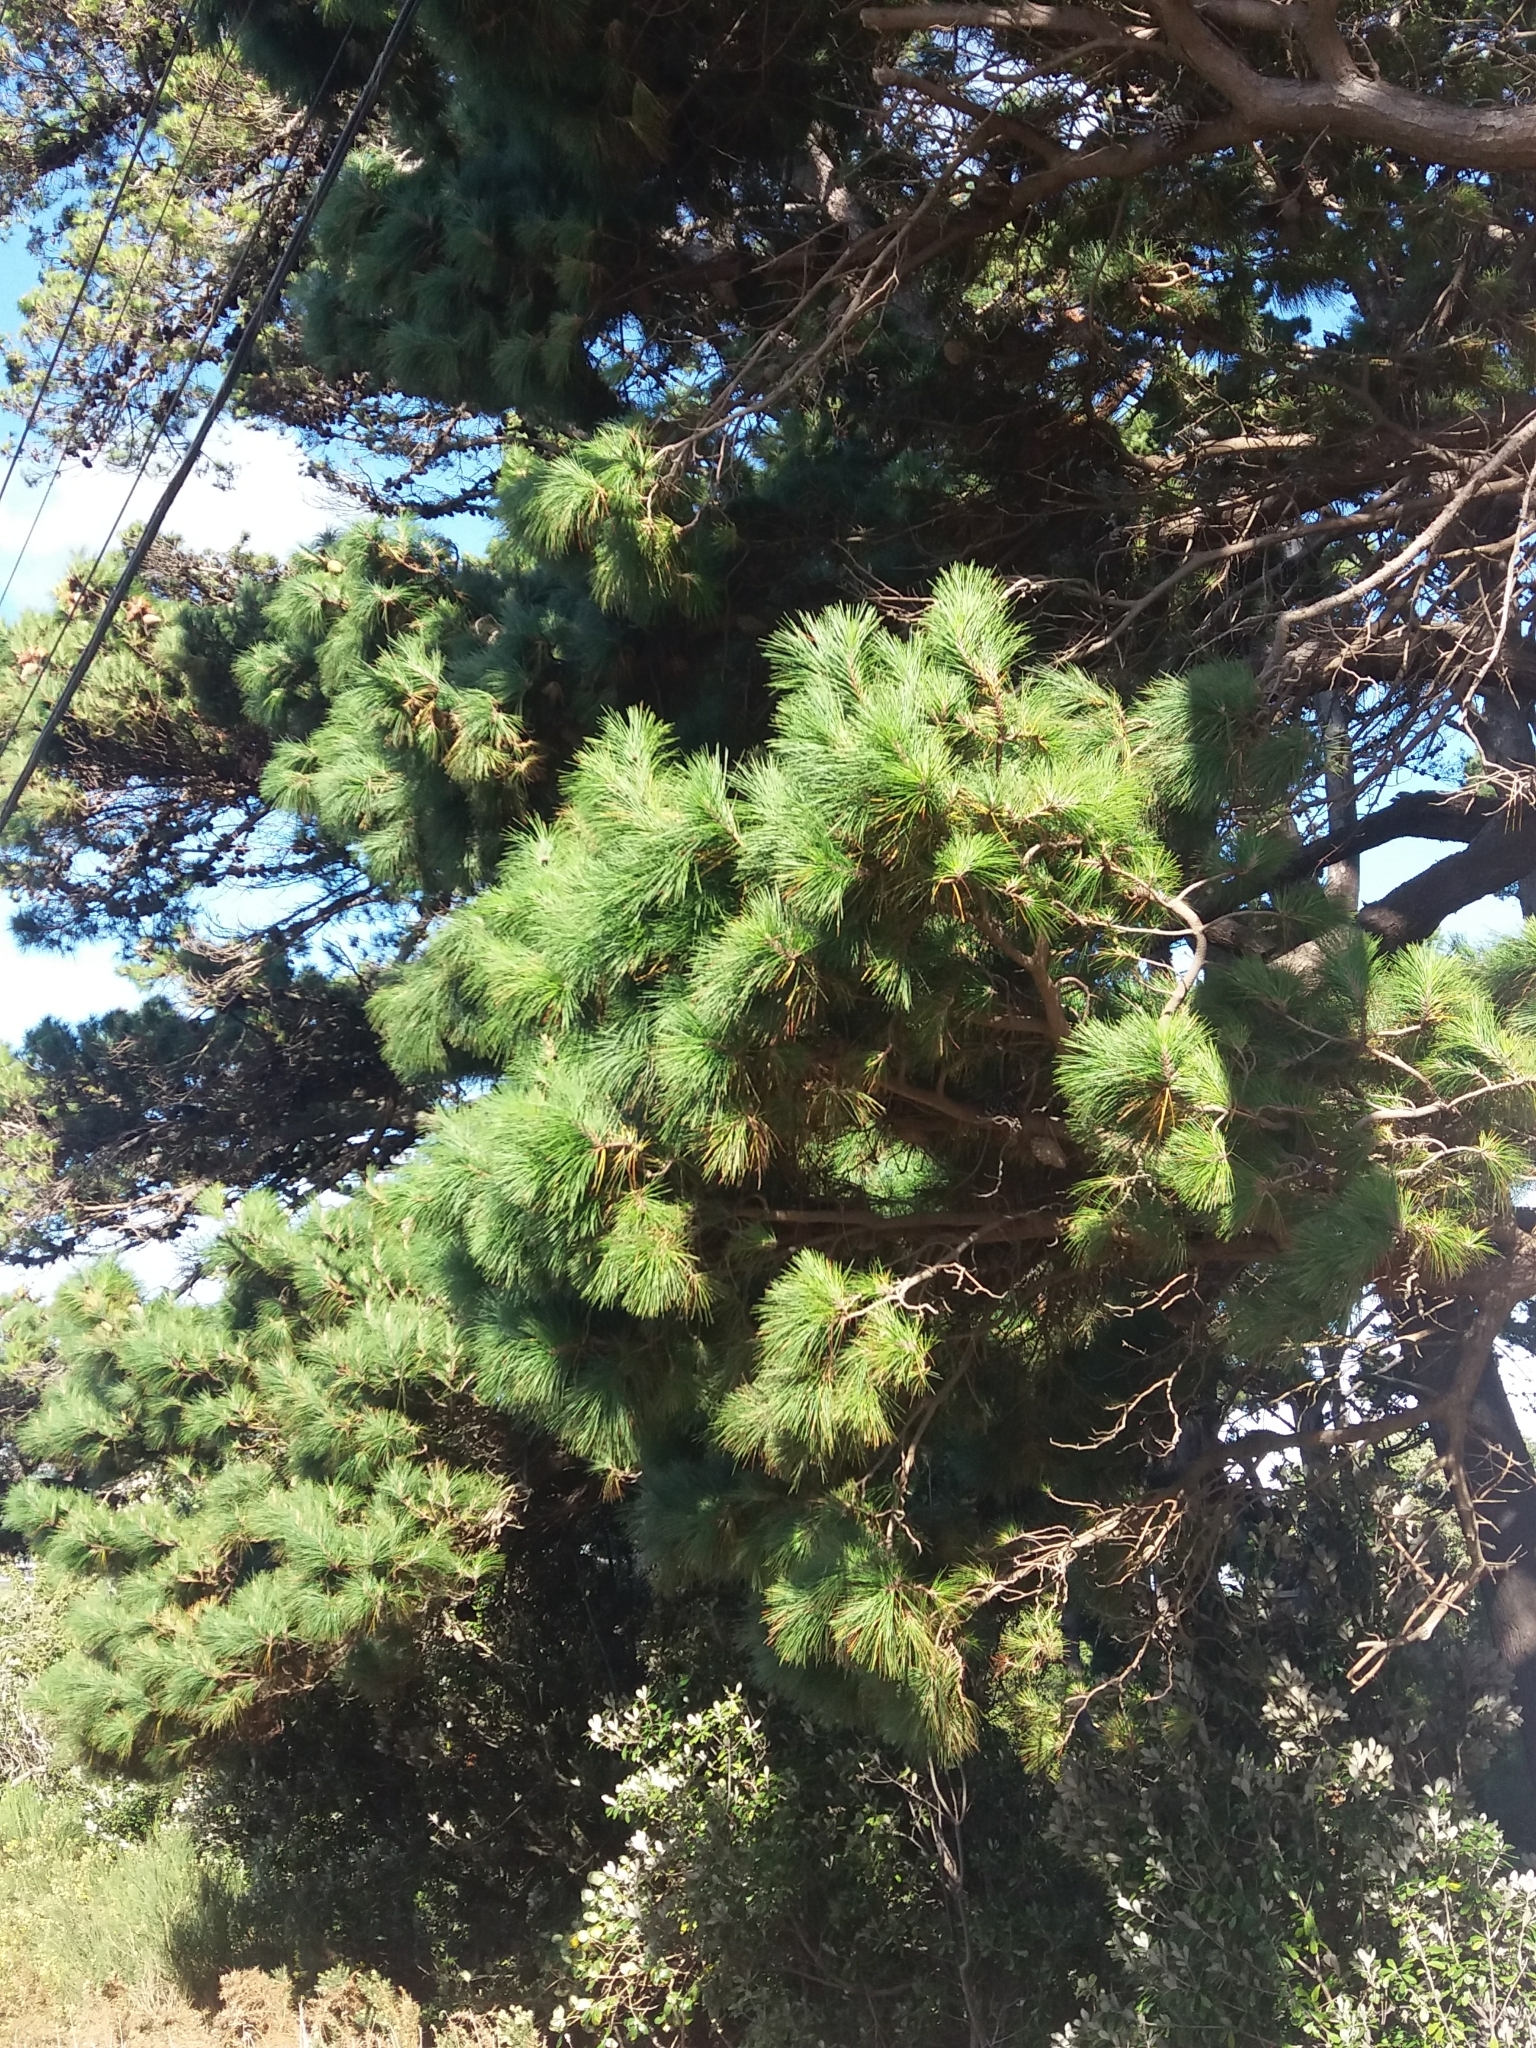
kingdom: Plantae
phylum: Tracheophyta
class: Pinopsida
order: Pinales
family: Pinaceae
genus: Pinus
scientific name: Pinus radiata
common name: Monterey pine
